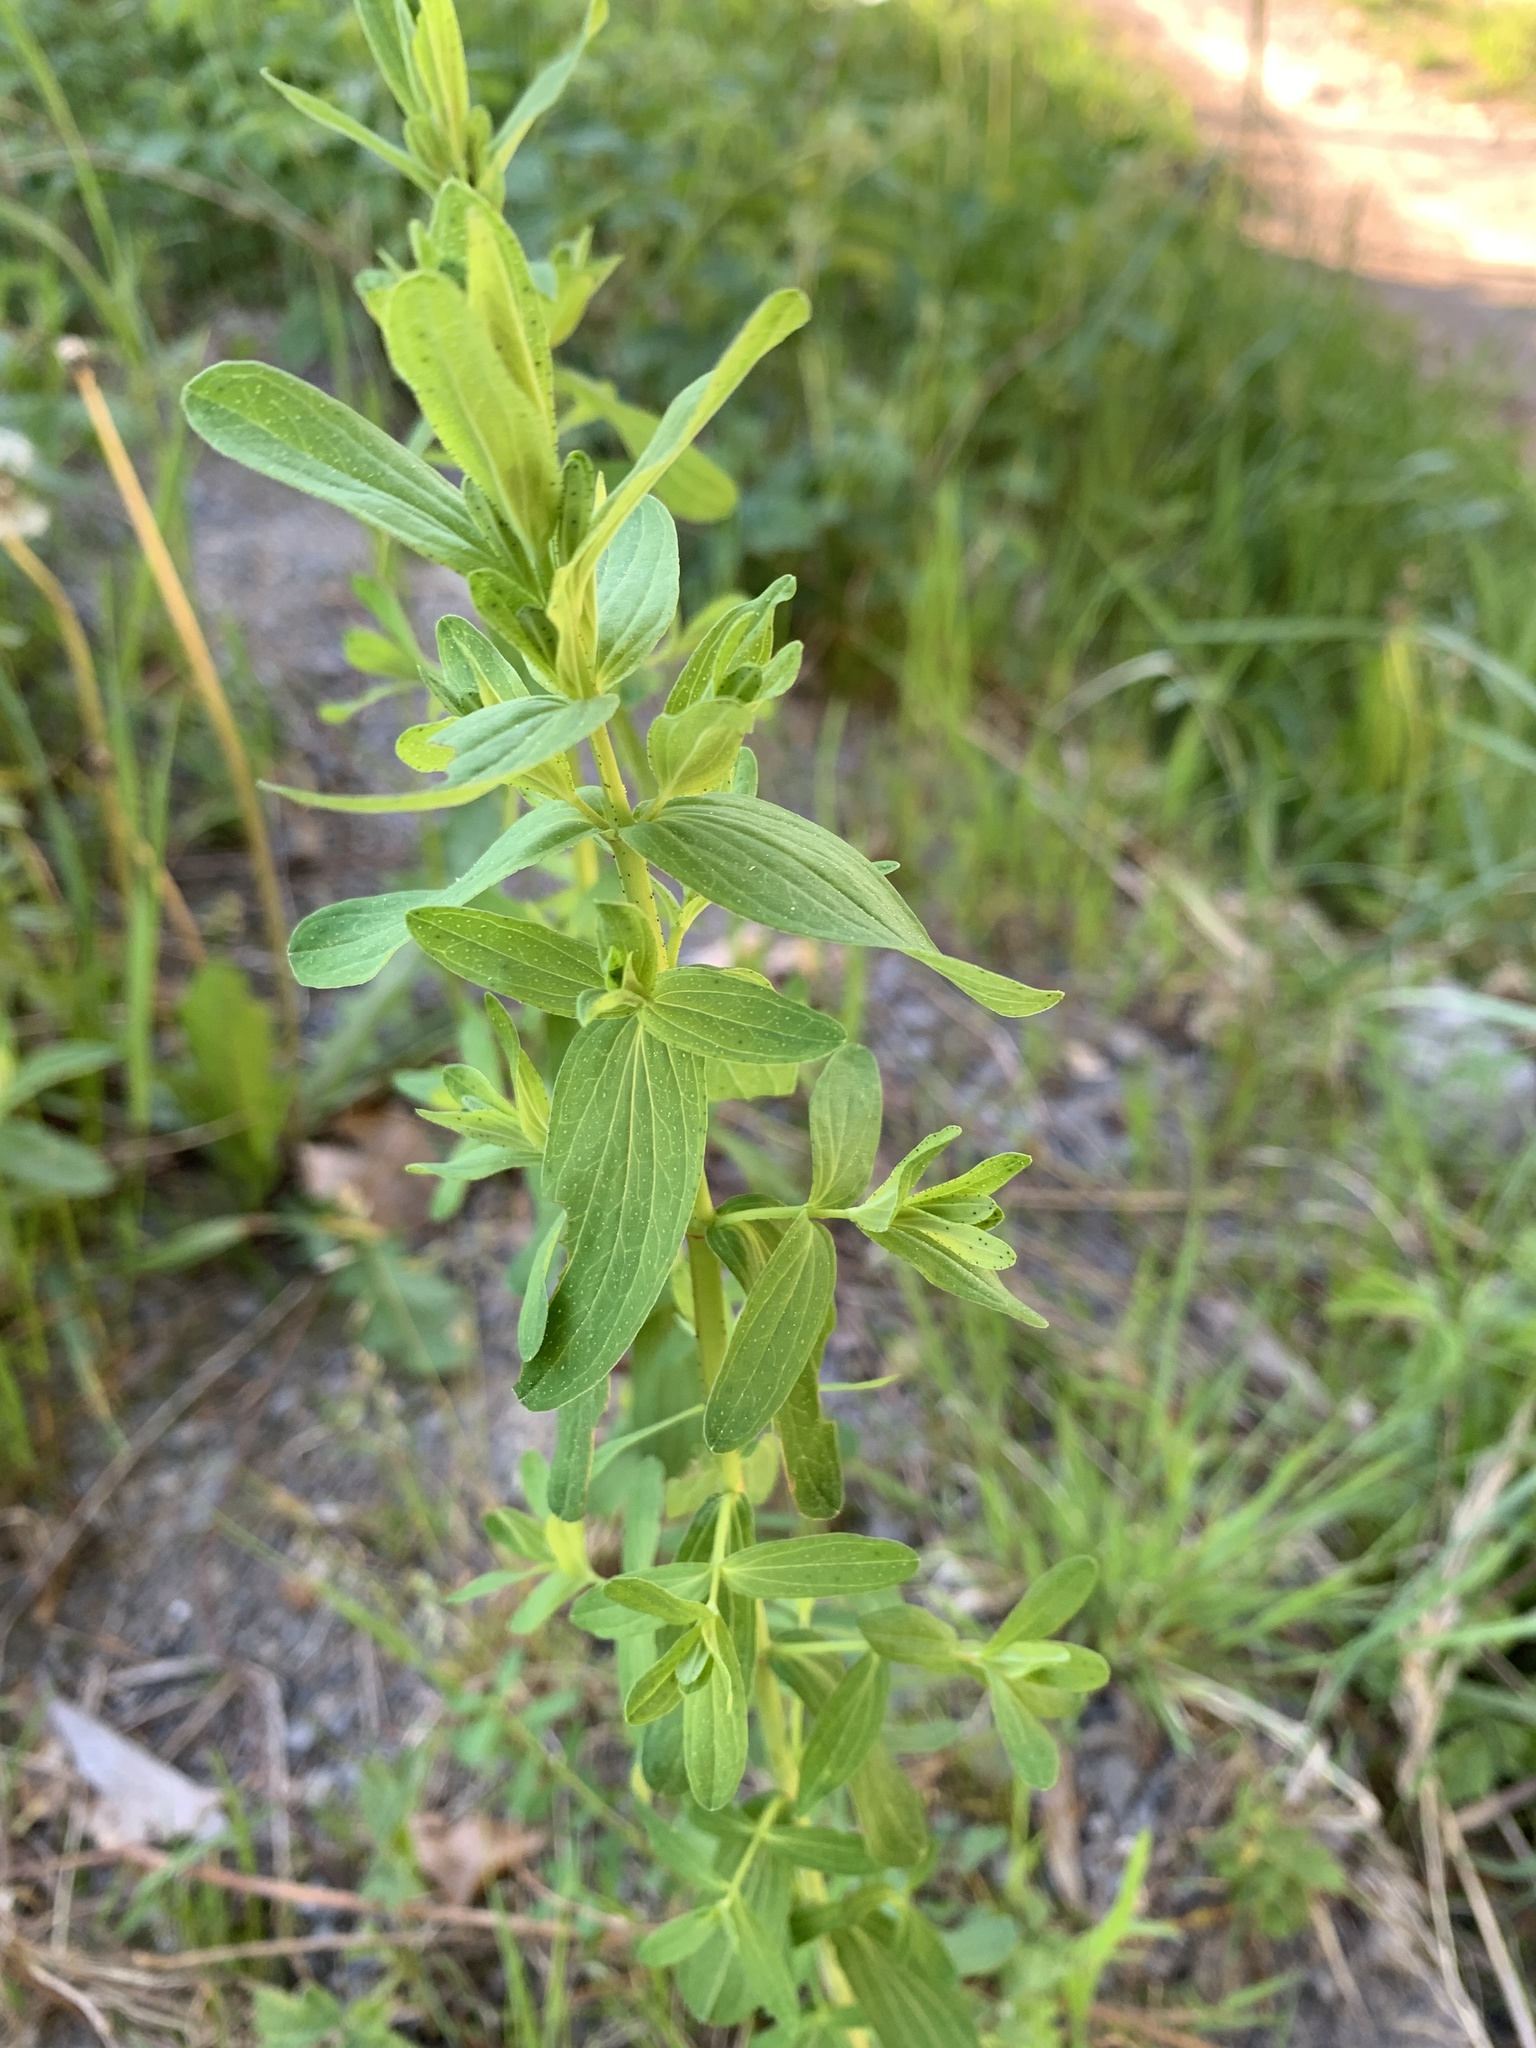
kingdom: Plantae
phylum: Tracheophyta
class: Magnoliopsida
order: Malpighiales
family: Hypericaceae
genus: Hypericum
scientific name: Hypericum perforatum
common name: Common st. johnswort
